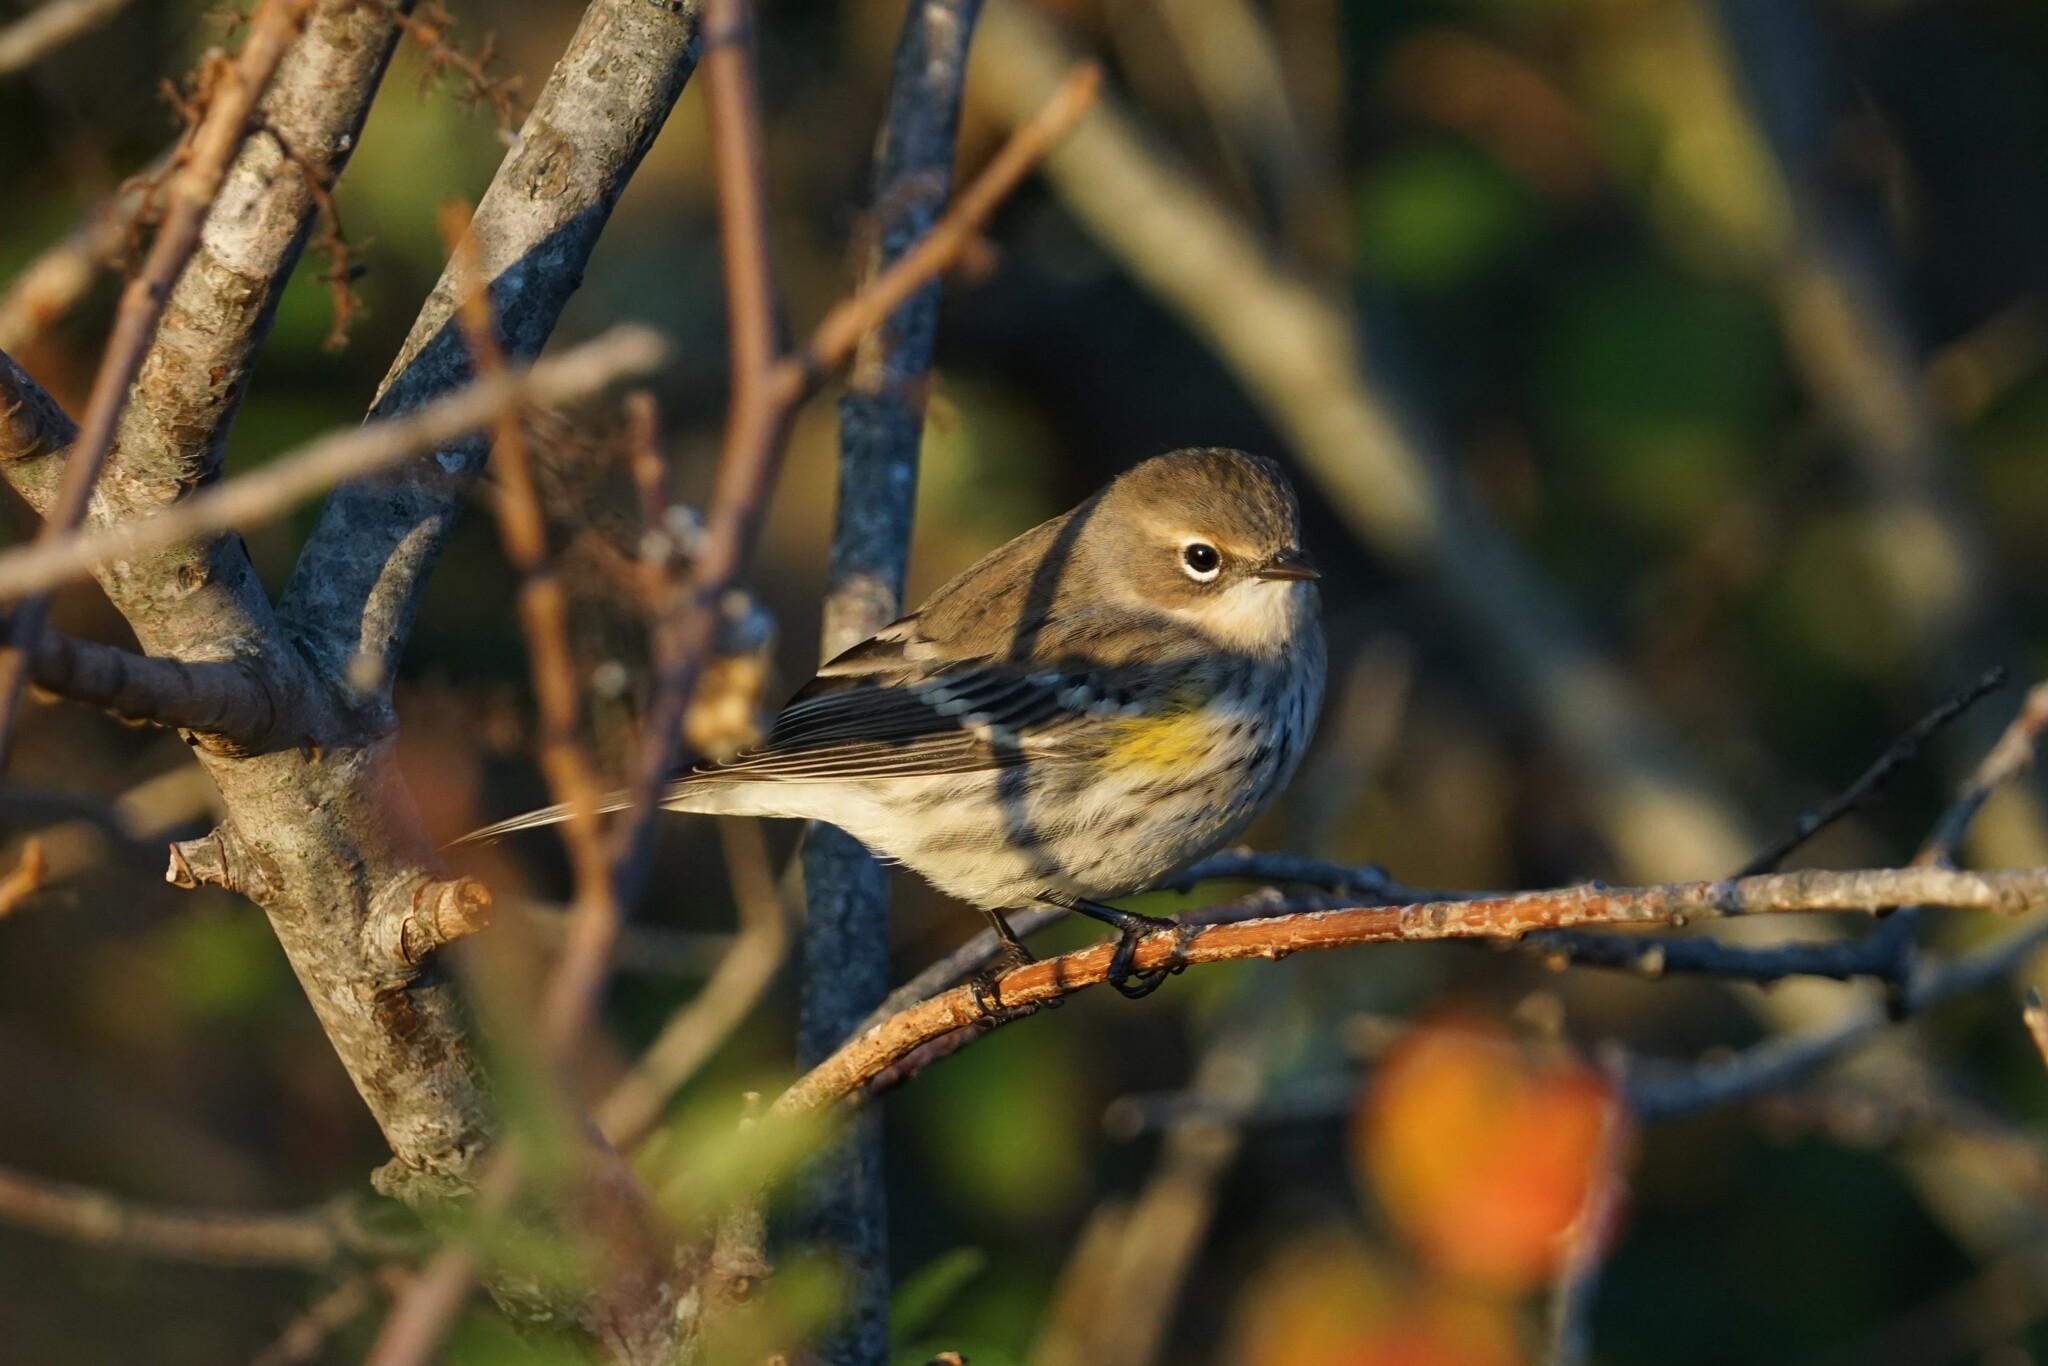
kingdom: Animalia
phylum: Chordata
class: Aves
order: Passeriformes
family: Parulidae
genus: Setophaga
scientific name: Setophaga coronata
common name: Myrtle warbler
